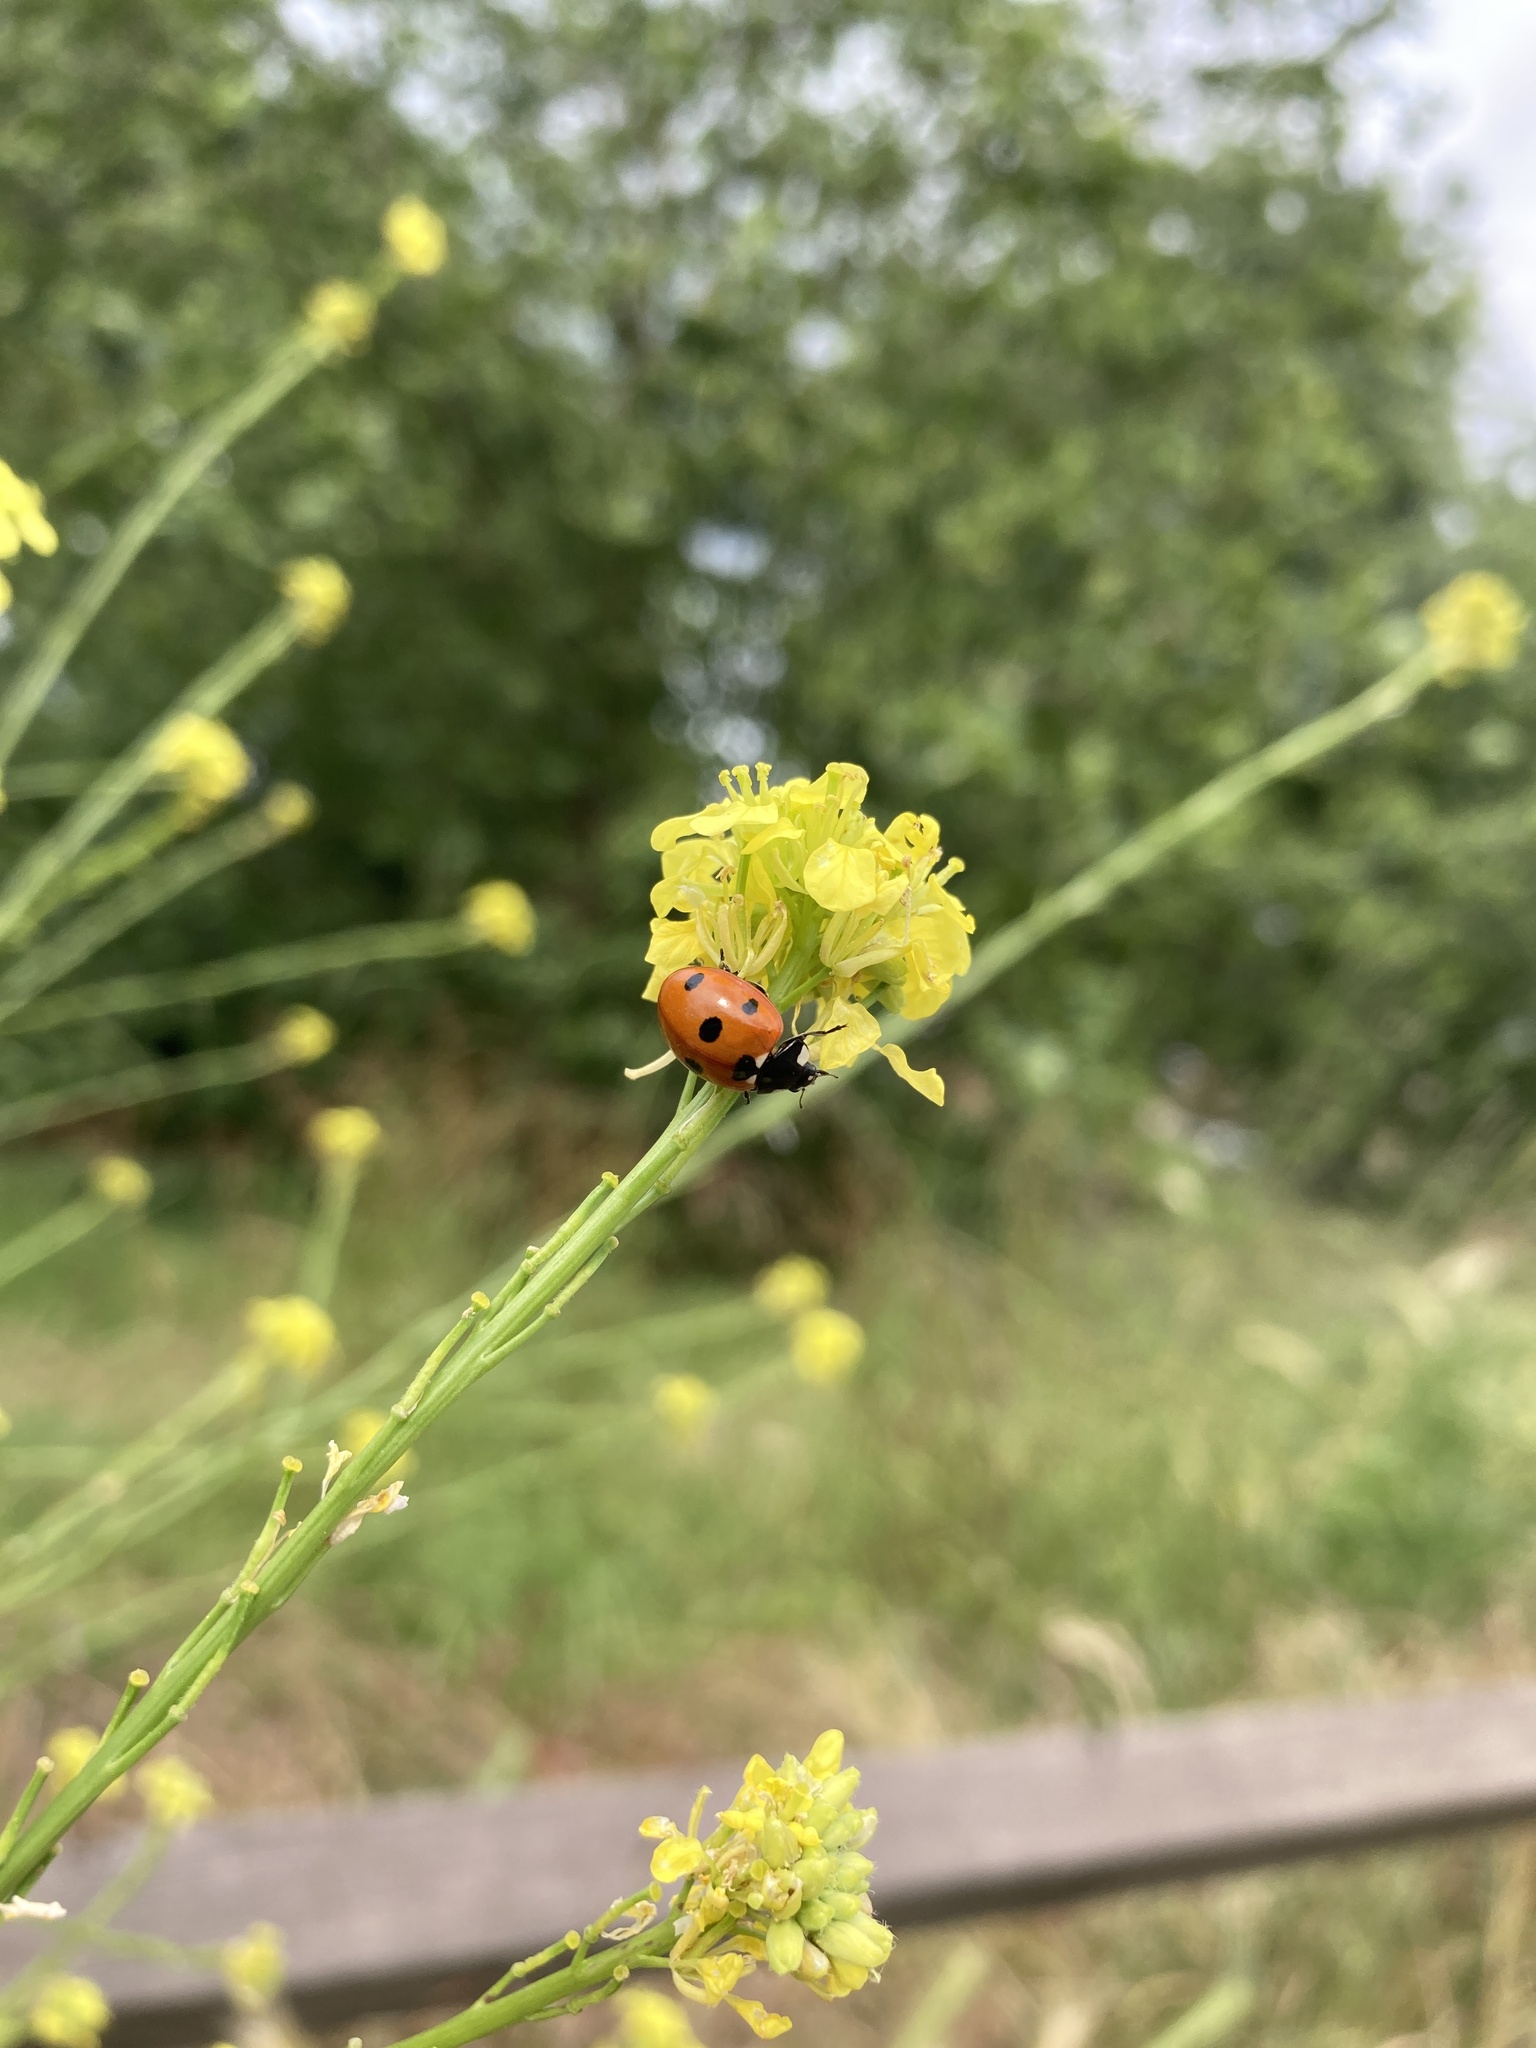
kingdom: Animalia
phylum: Arthropoda
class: Insecta
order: Coleoptera
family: Coccinellidae
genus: Coccinella
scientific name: Coccinella septempunctata
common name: Sevenspotted lady beetle
